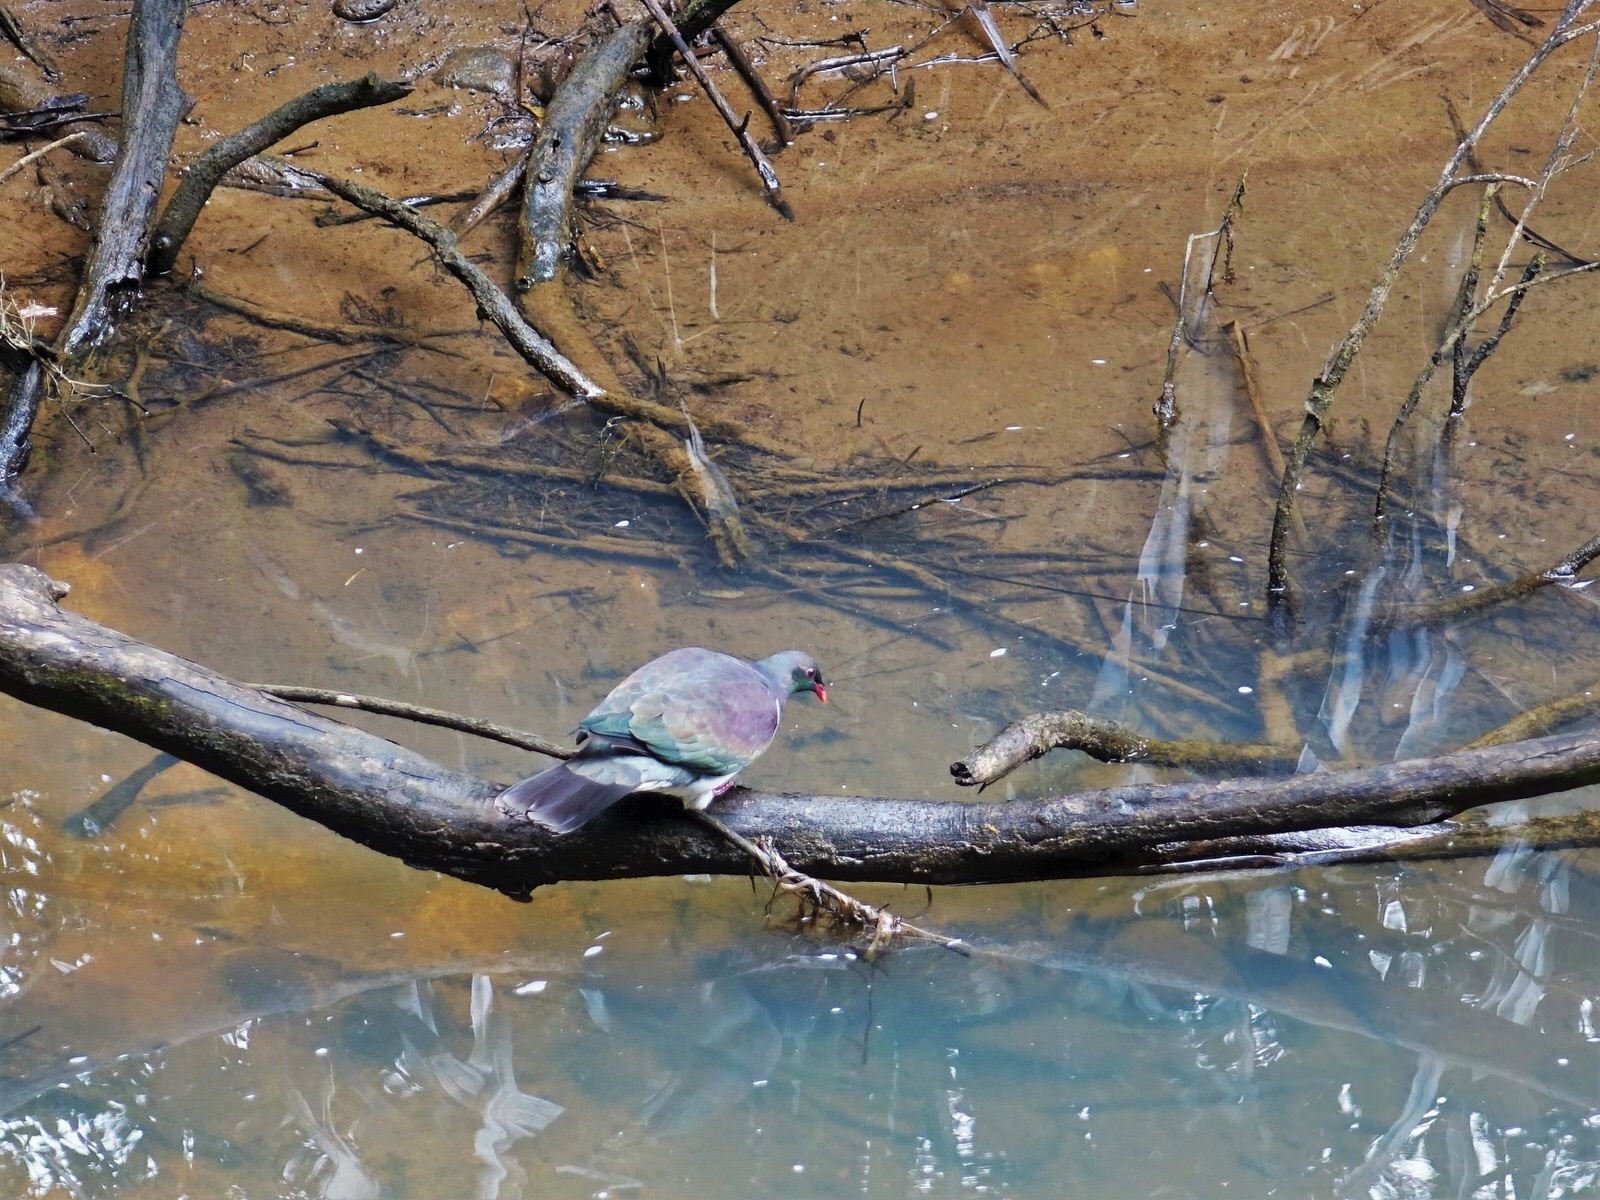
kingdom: Animalia
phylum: Chordata
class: Aves
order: Columbiformes
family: Columbidae
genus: Hemiphaga
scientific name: Hemiphaga novaeseelandiae
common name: New zealand pigeon
